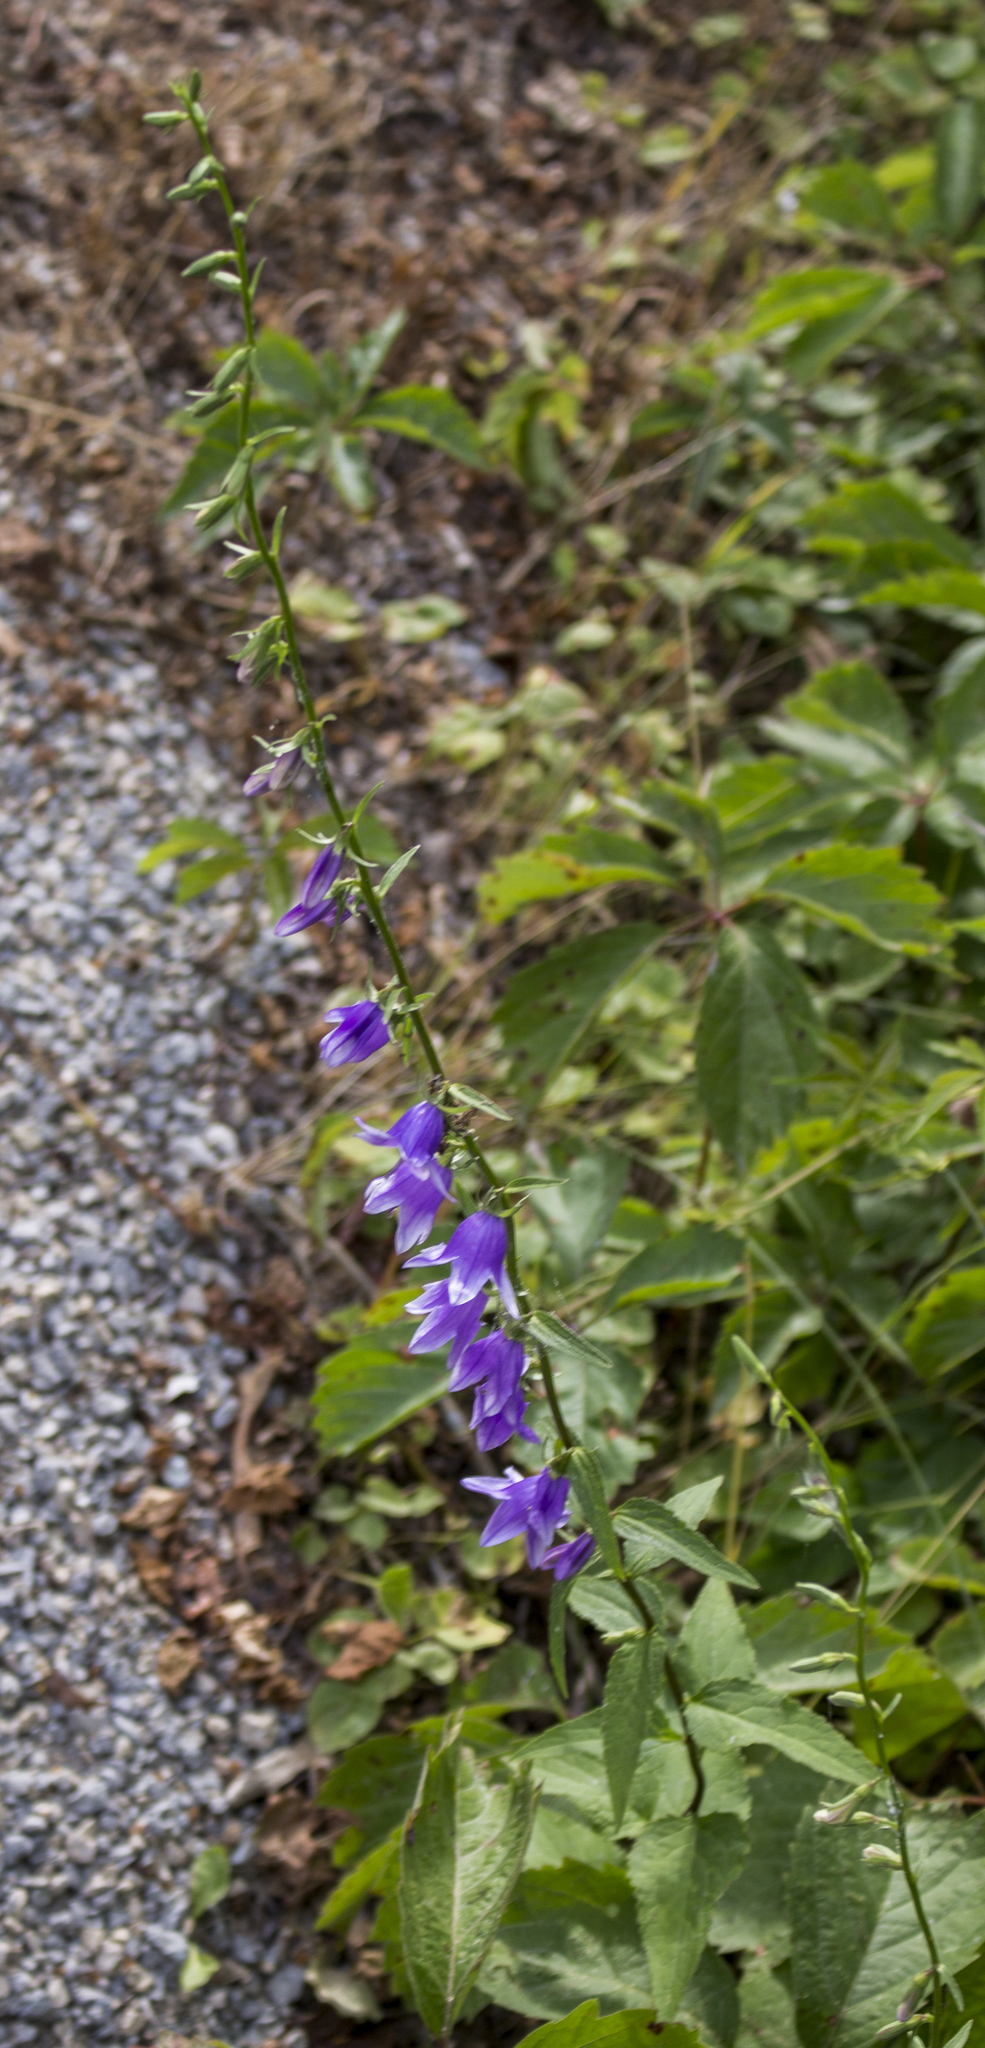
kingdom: Plantae
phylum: Tracheophyta
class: Magnoliopsida
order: Asterales
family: Campanulaceae
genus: Campanula
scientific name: Campanula rapunculoides
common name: Creeping bellflower
